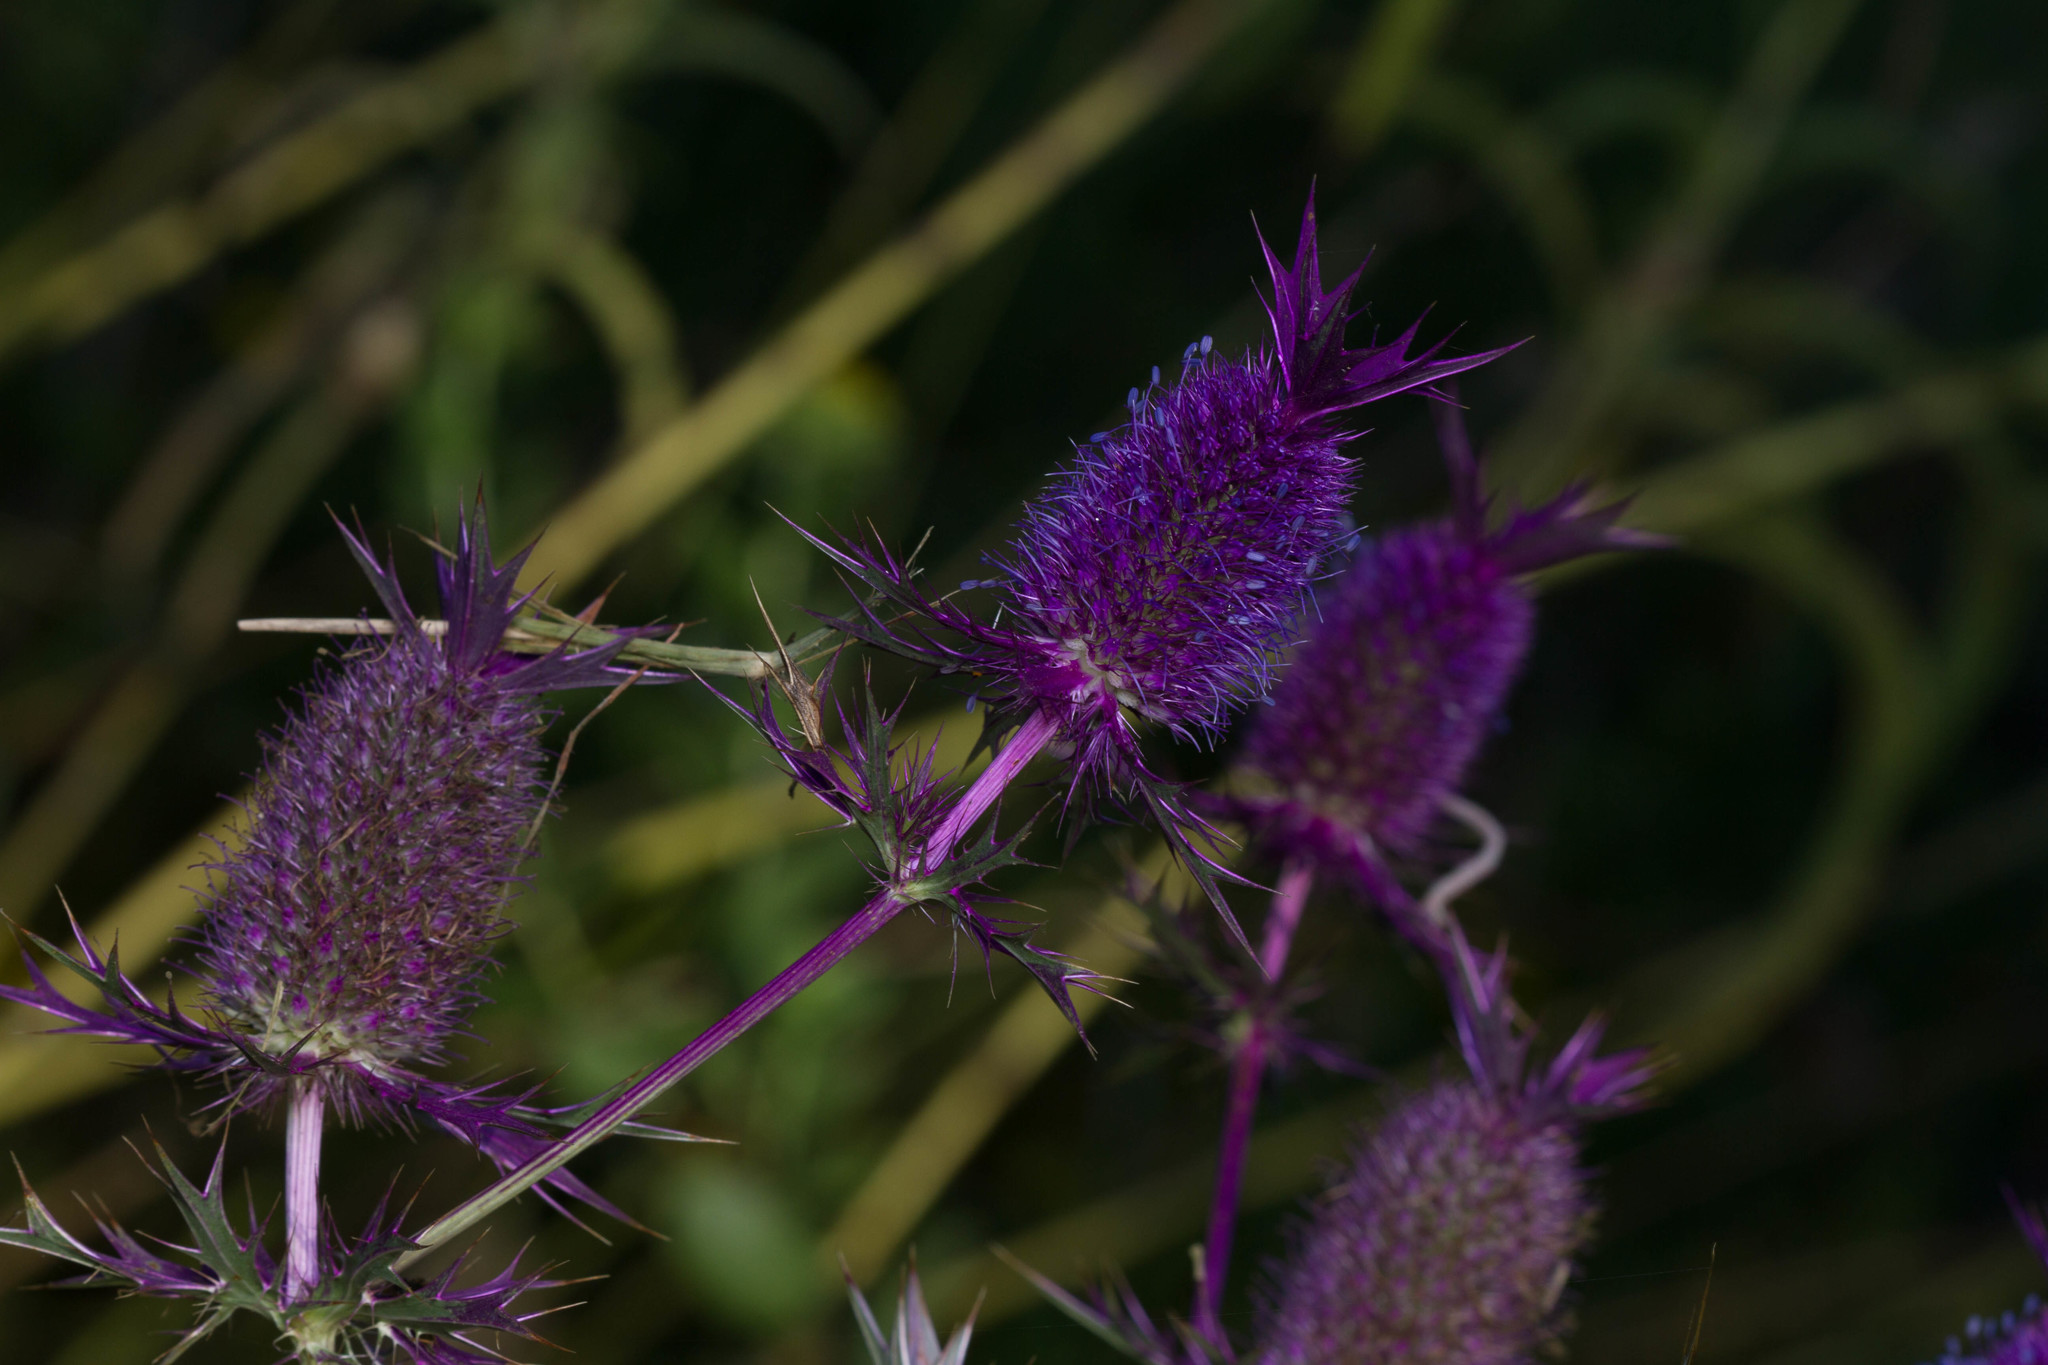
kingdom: Plantae
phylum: Tracheophyta
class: Magnoliopsida
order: Apiales
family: Apiaceae
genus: Eryngium
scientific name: Eryngium leavenworthii
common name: Leavenworth's eryngo
